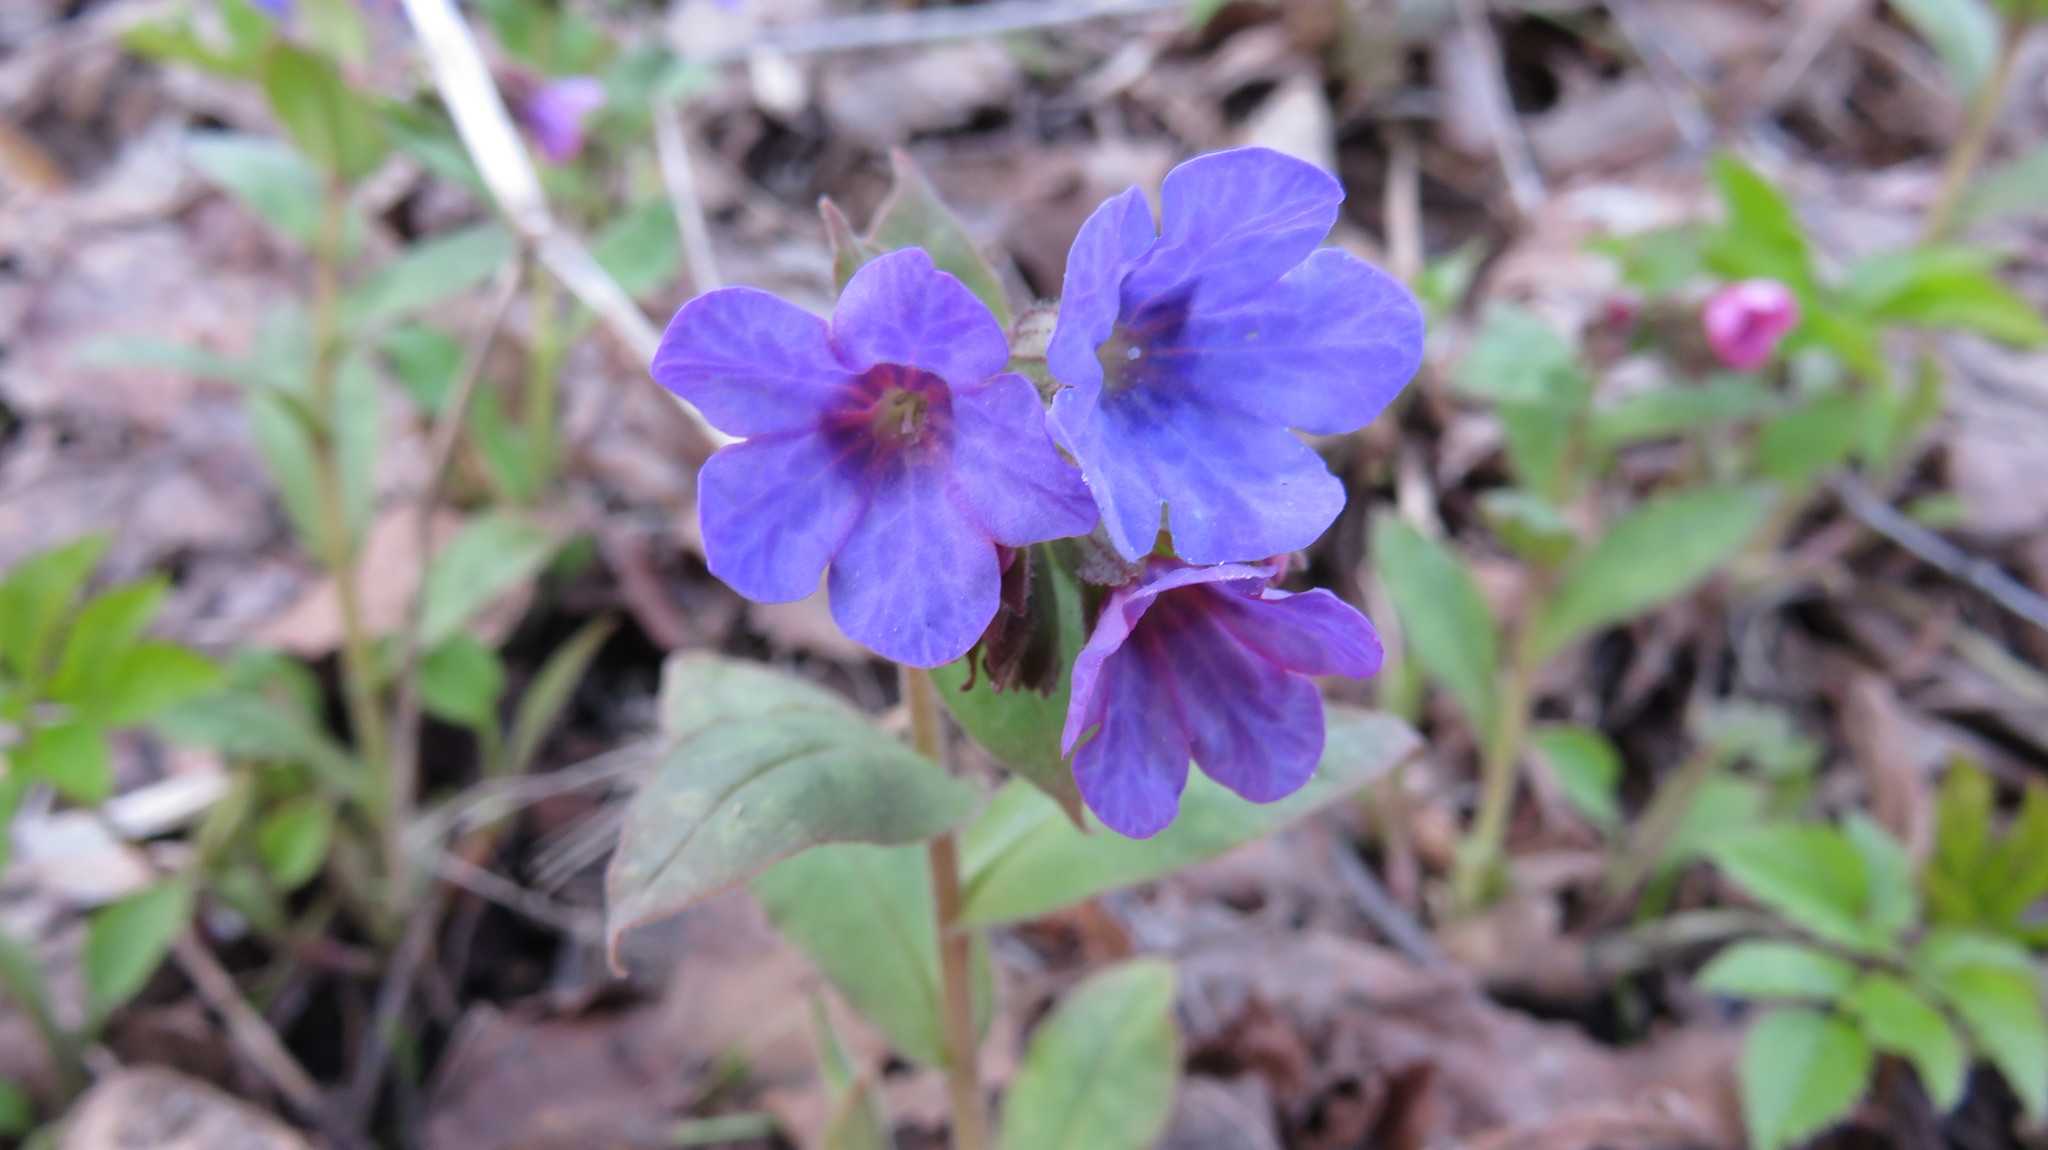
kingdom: Plantae
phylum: Tracheophyta
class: Magnoliopsida
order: Boraginales
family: Boraginaceae
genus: Pulmonaria
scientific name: Pulmonaria obscura
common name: Suffolk lungwort
